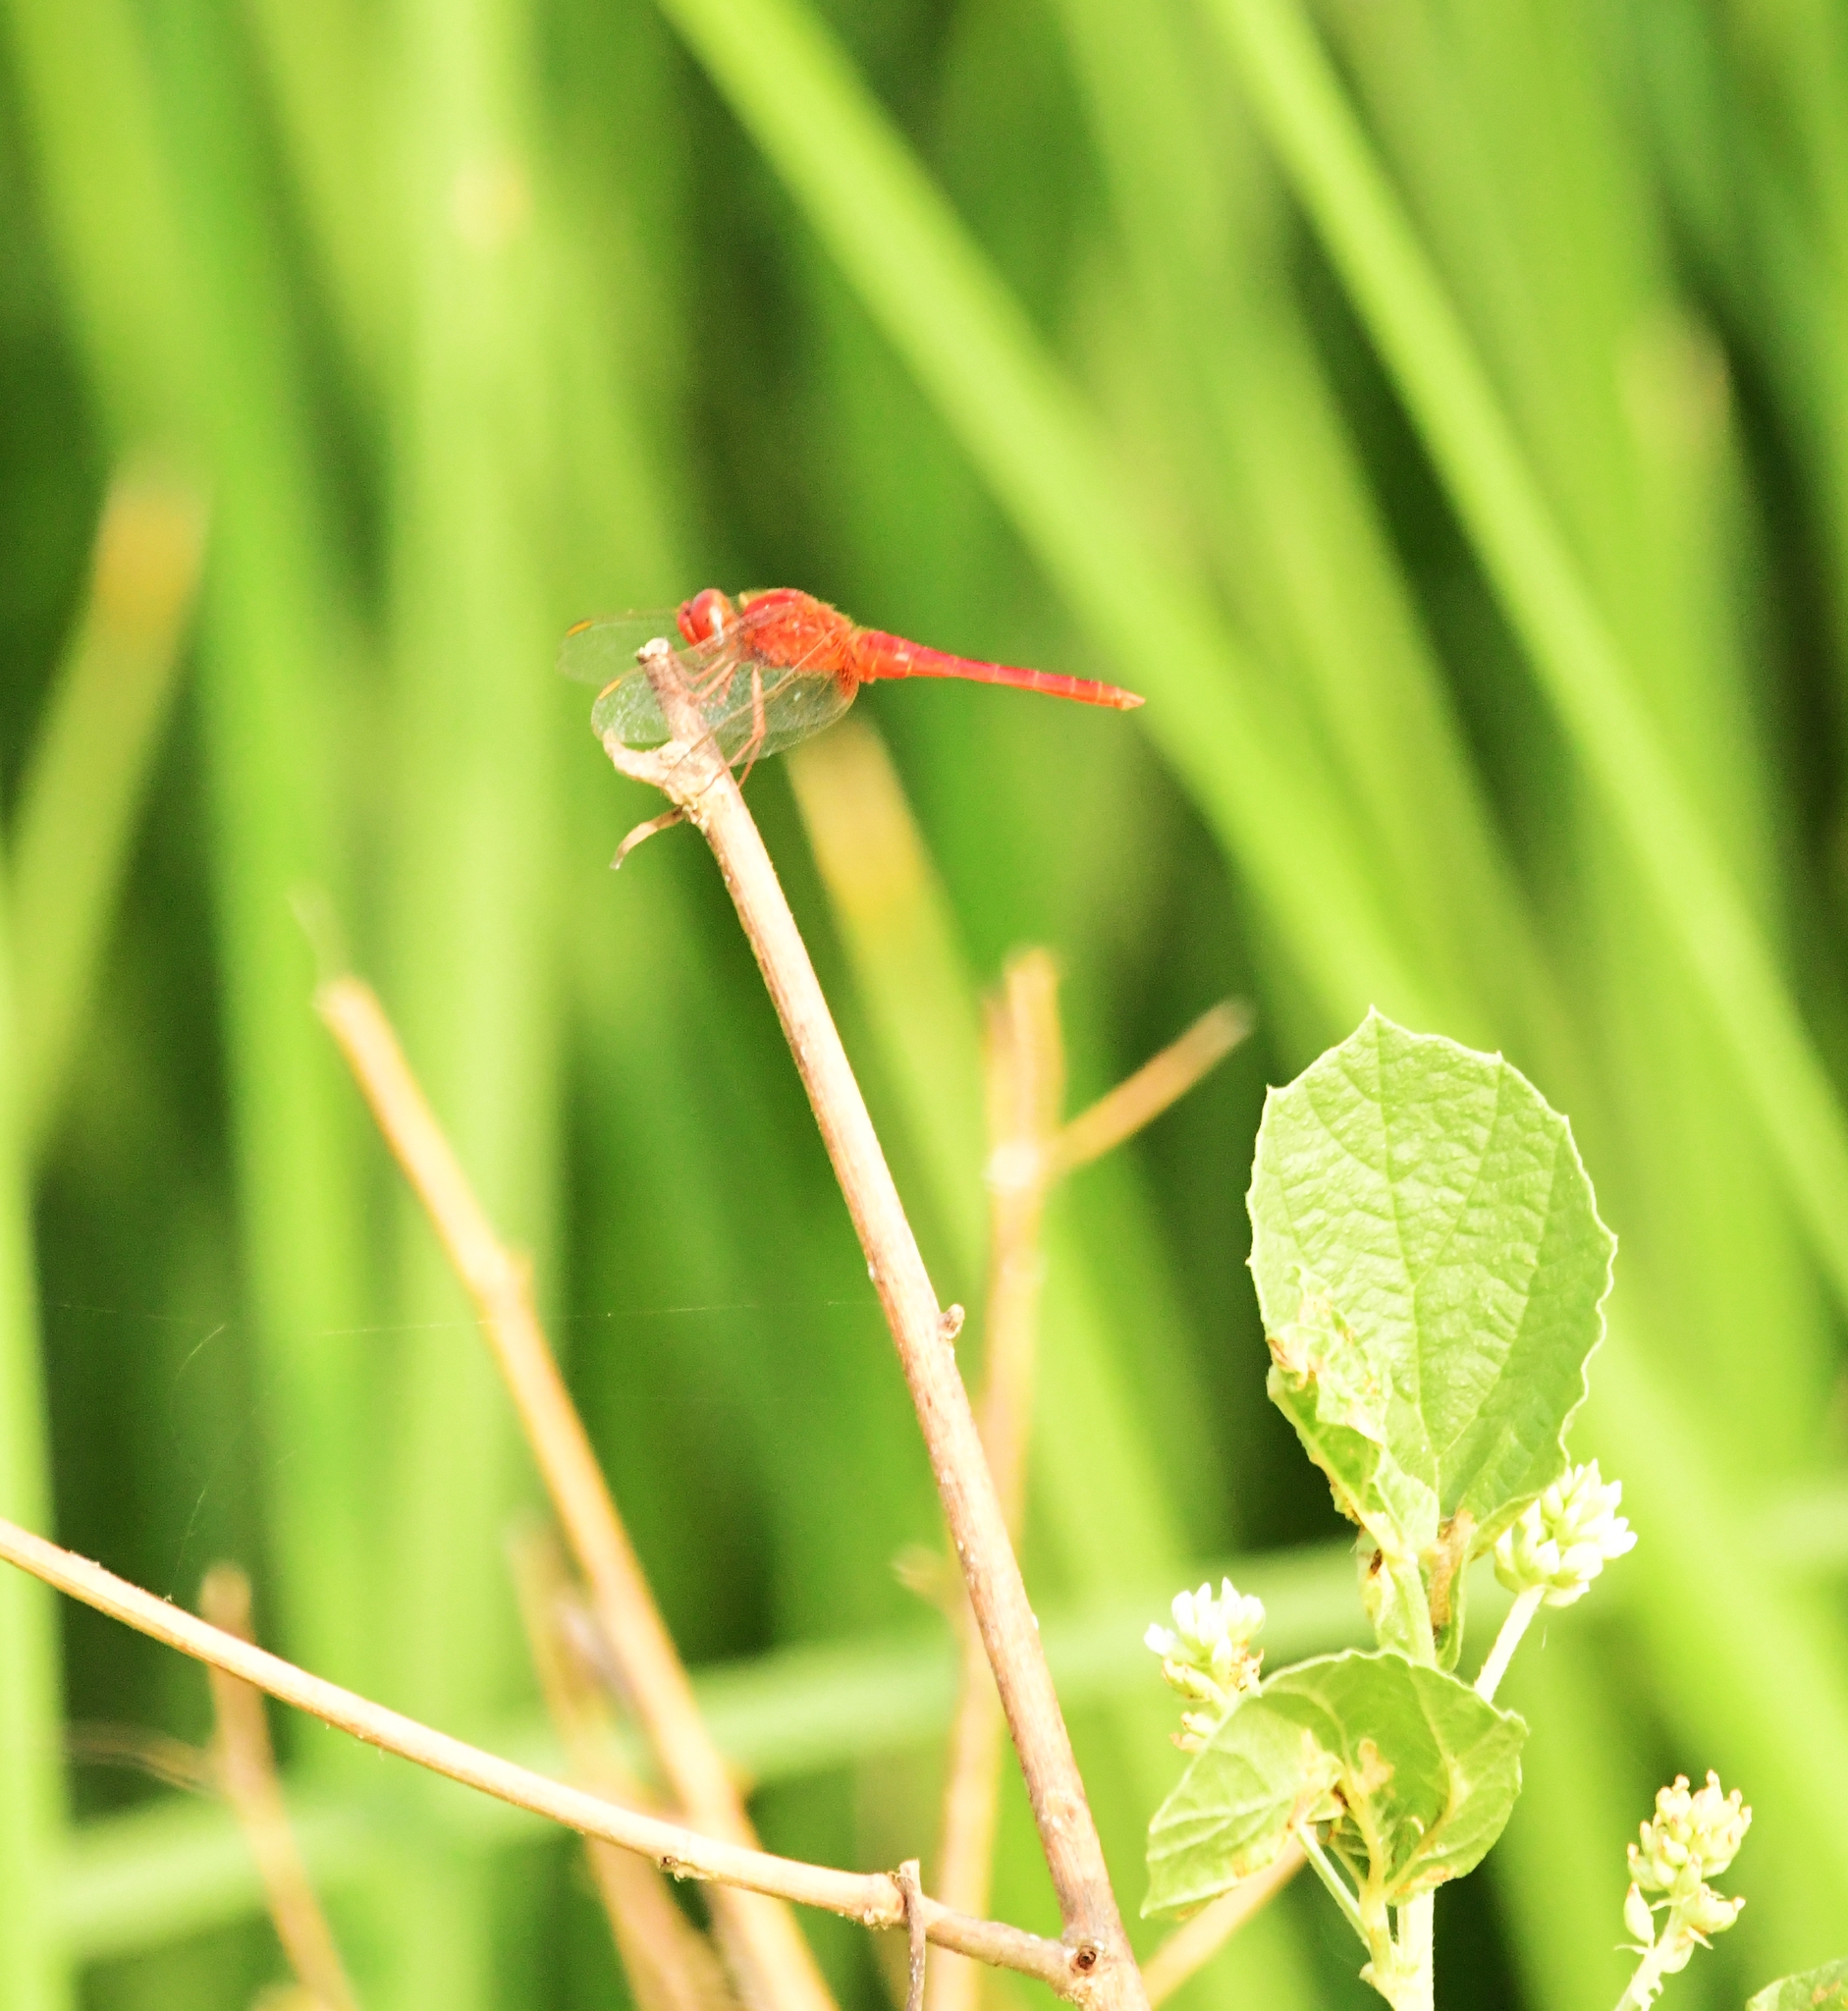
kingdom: Animalia
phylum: Arthropoda
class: Insecta
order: Odonata
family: Libellulidae
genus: Crocothemis
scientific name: Crocothemis servilia
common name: Scarlet skimmer
